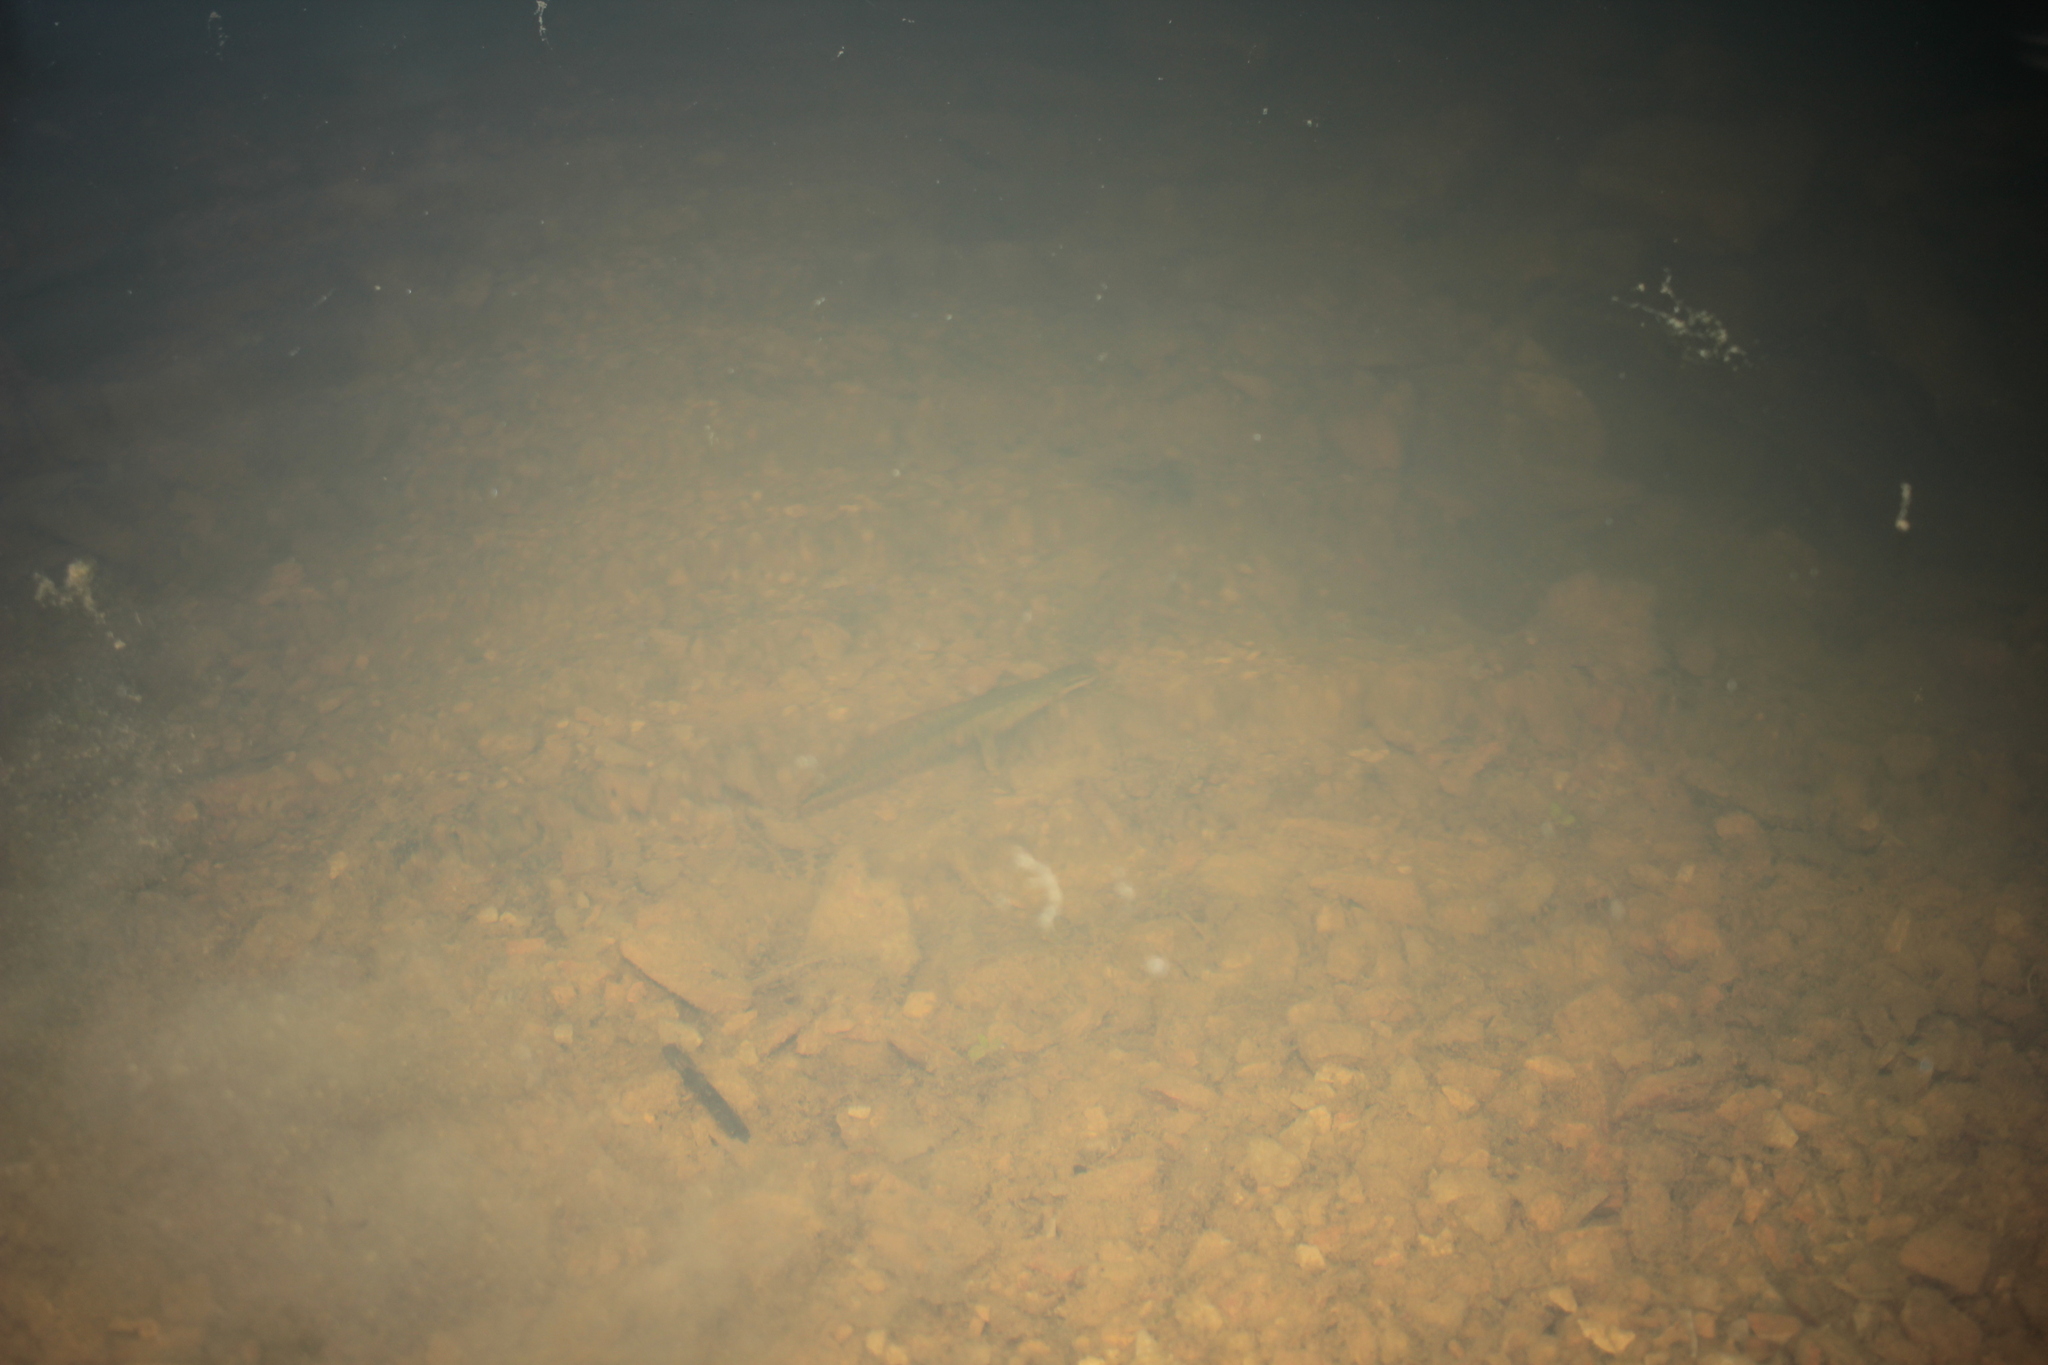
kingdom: Animalia
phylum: Chordata
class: Amphibia
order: Caudata
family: Salamandridae
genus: Notophthalmus
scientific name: Notophthalmus viridescens
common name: Eastern newt
